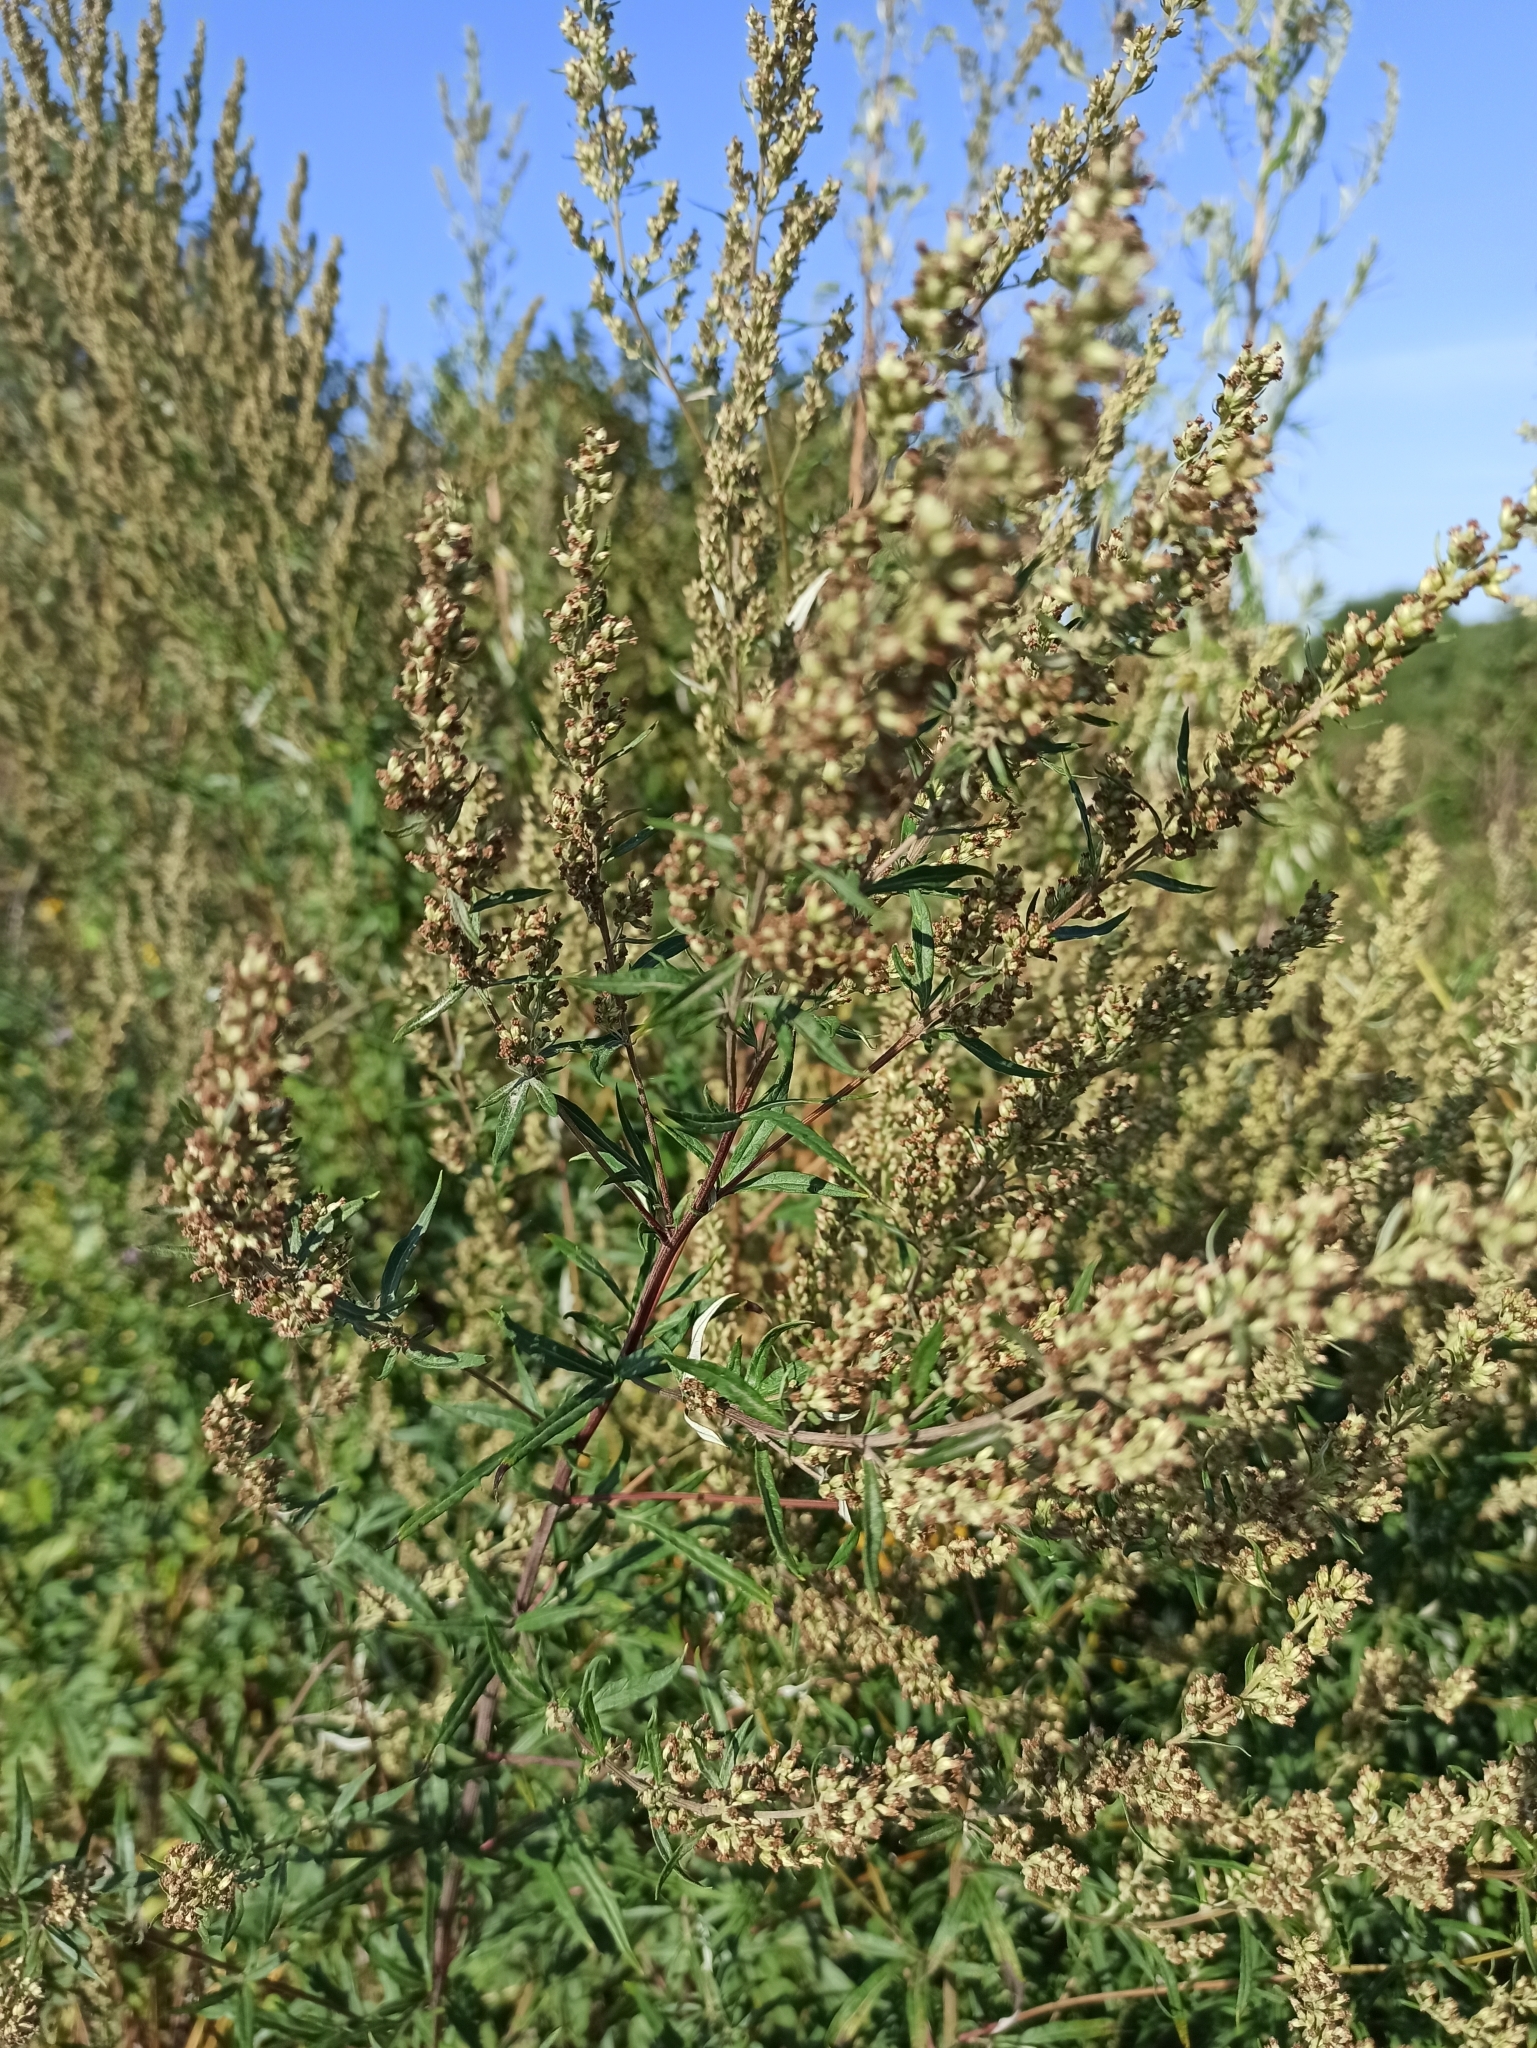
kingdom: Plantae
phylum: Tracheophyta
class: Magnoliopsida
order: Asterales
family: Asteraceae
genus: Artemisia
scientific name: Artemisia vulgaris
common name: Mugwort
